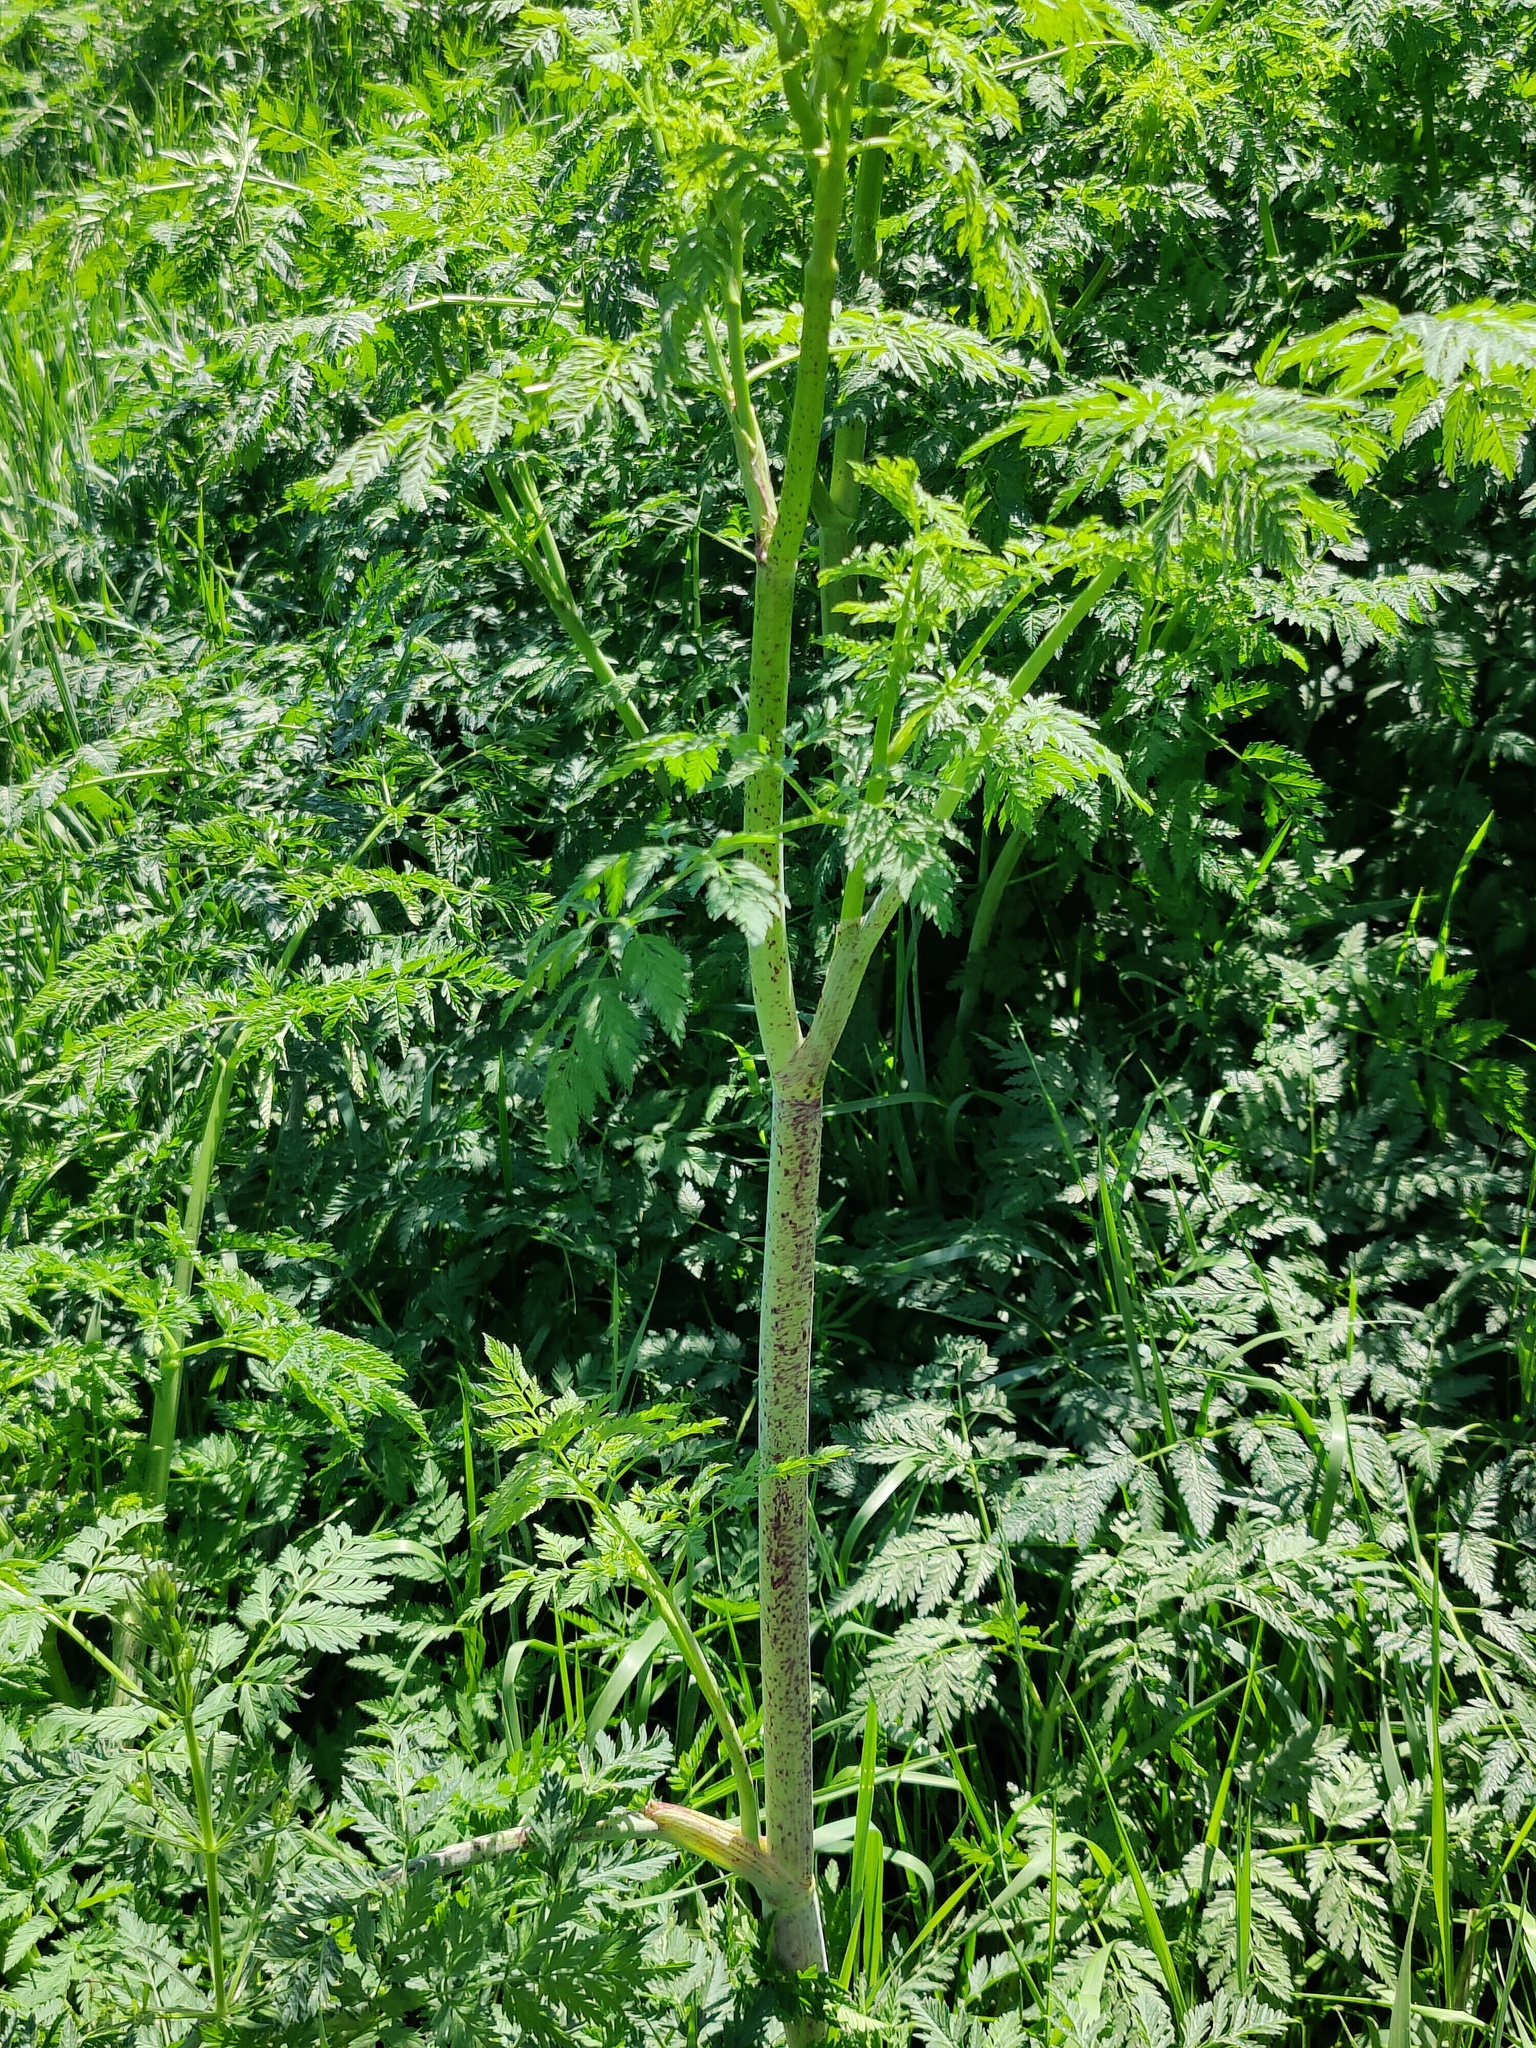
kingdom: Plantae
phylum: Tracheophyta
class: Magnoliopsida
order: Apiales
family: Apiaceae
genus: Conium
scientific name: Conium maculatum
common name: Hemlock
